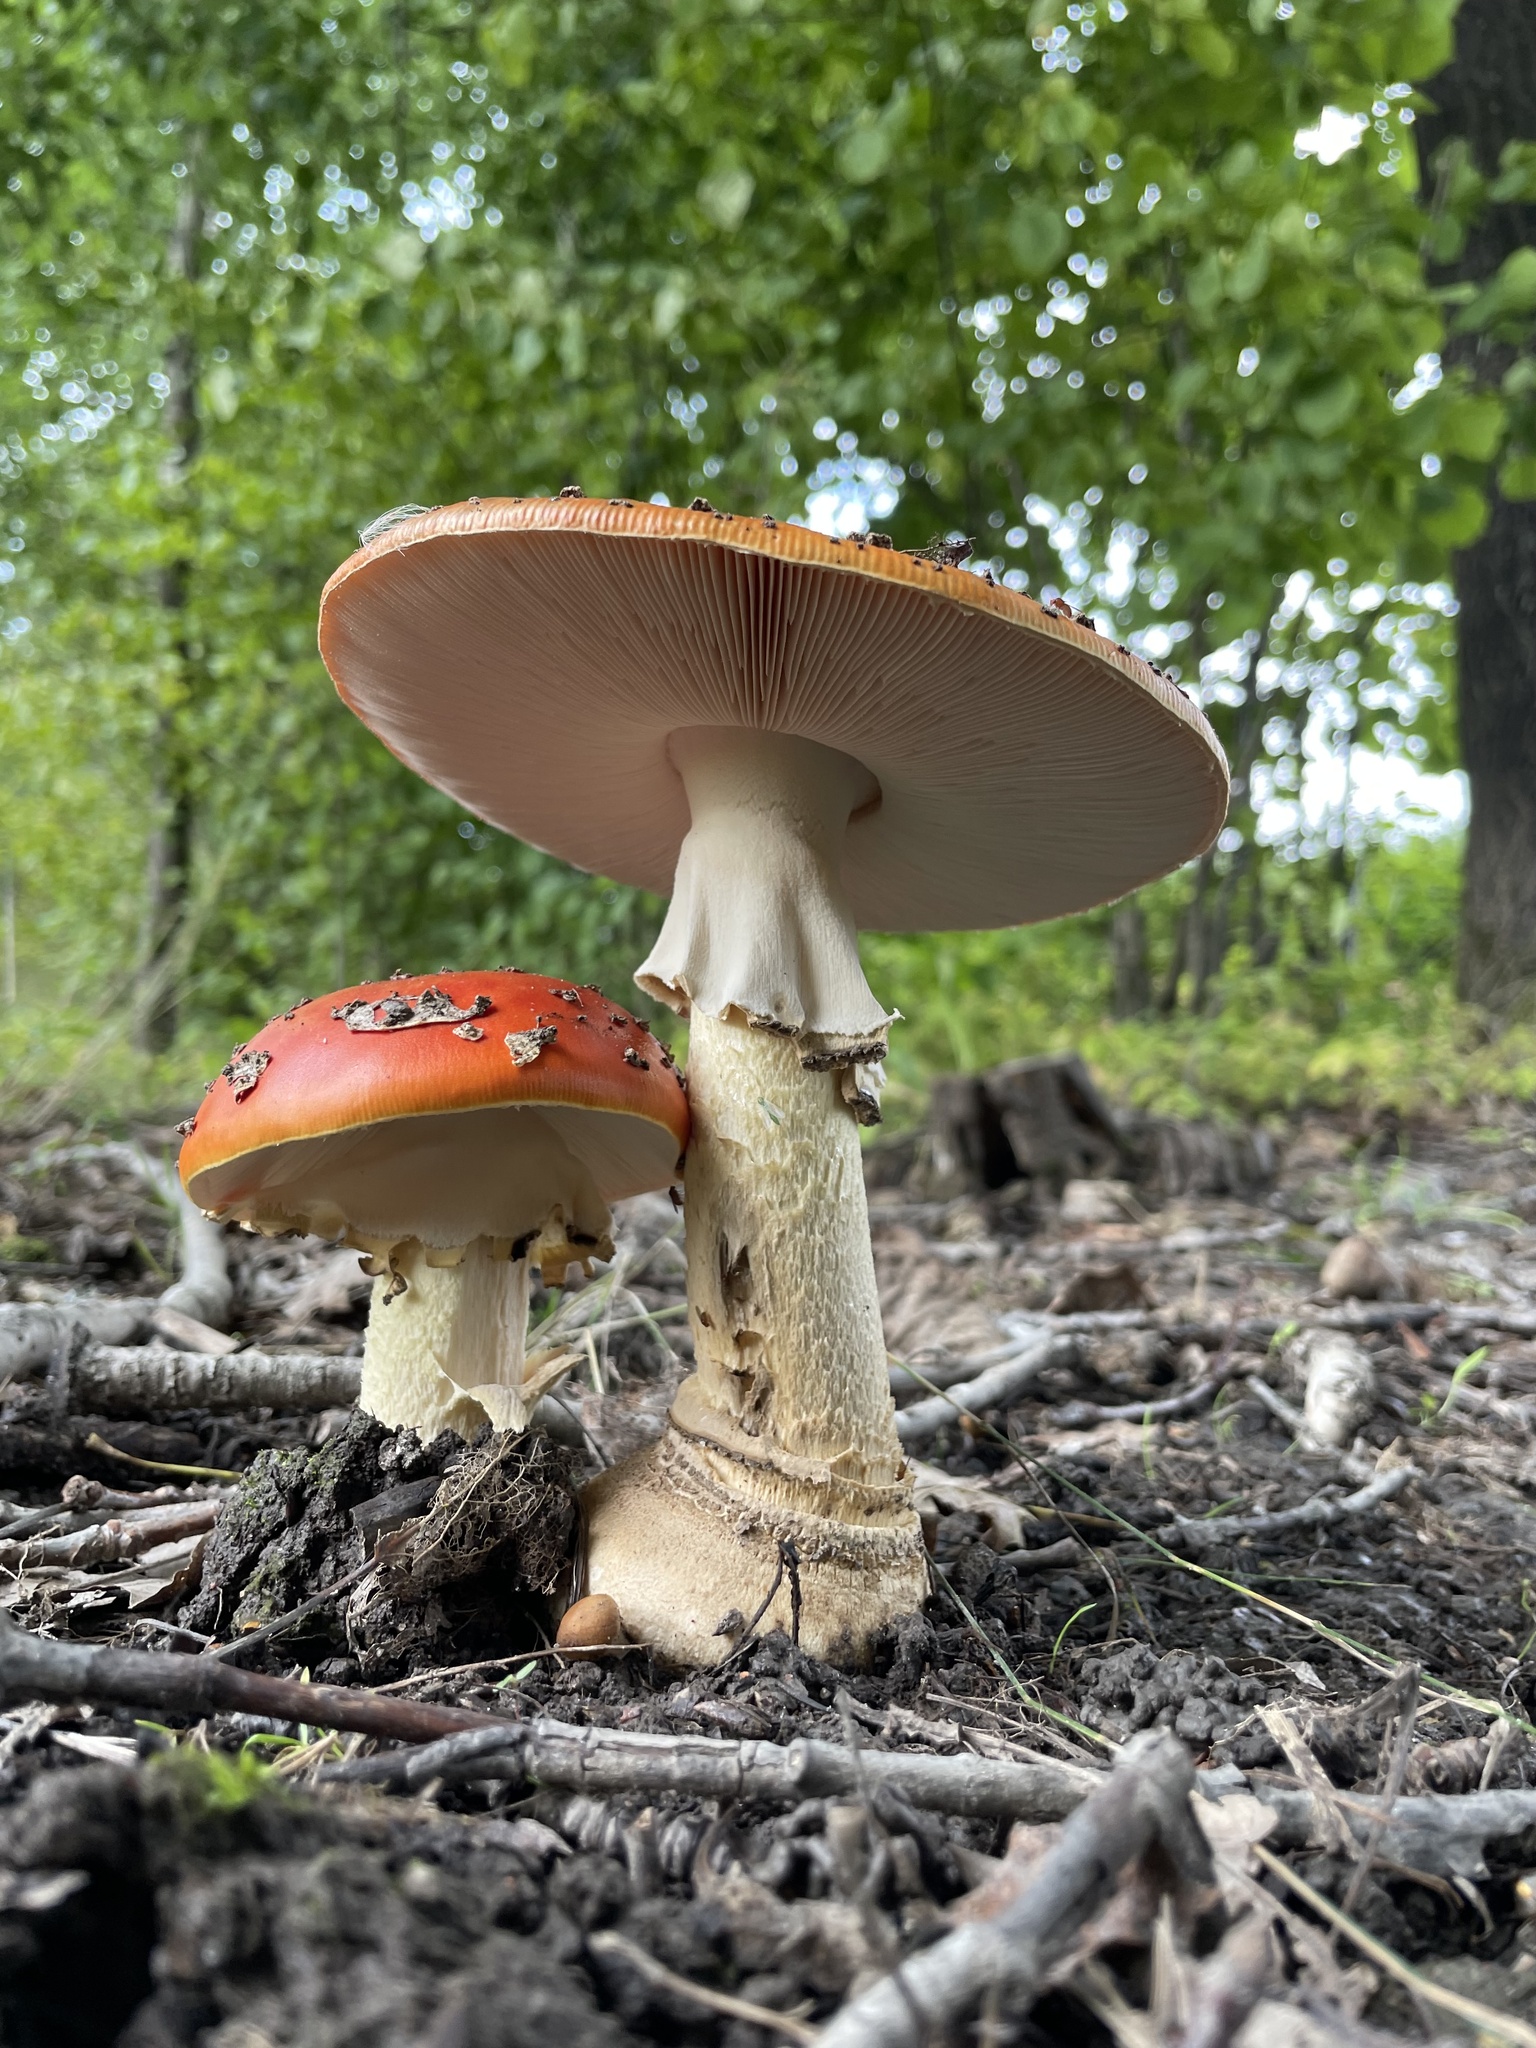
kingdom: Fungi
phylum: Basidiomycota
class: Agaricomycetes
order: Agaricales
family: Amanitaceae
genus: Amanita
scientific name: Amanita muscaria
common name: Fly agaric
